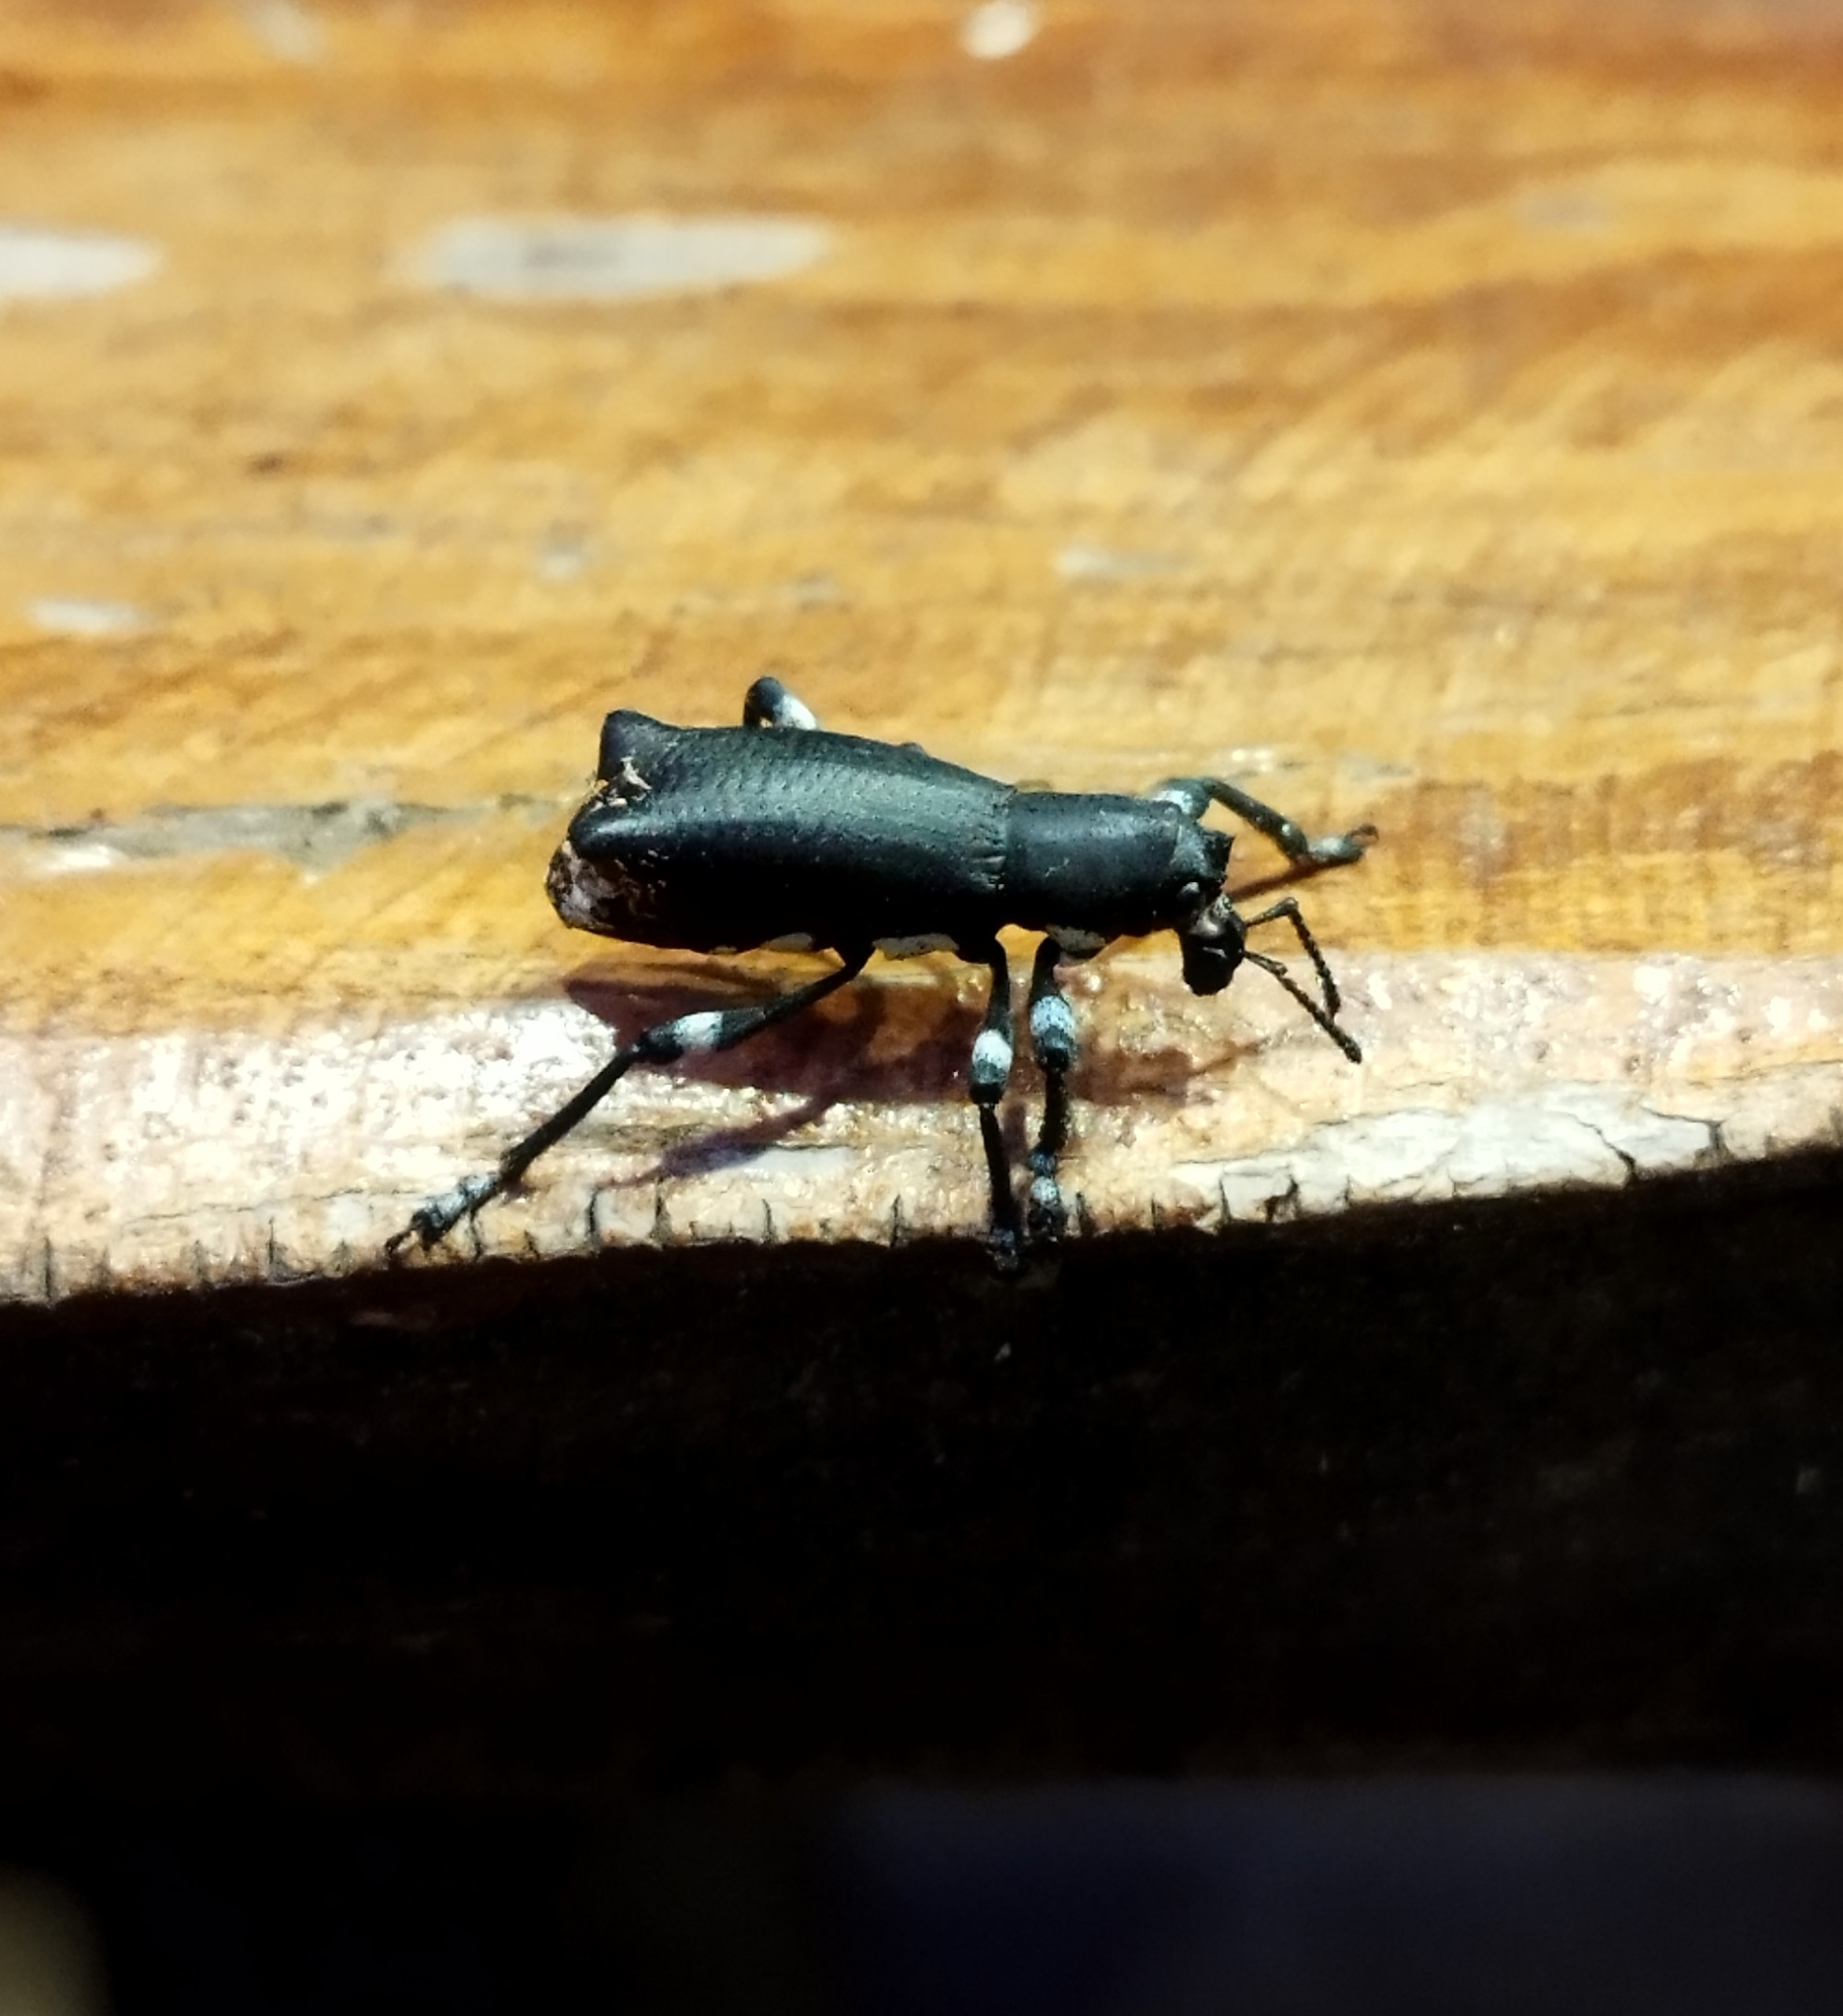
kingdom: Animalia
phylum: Arthropoda
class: Insecta
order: Coleoptera
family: Curculionidae
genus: Aegorhinus
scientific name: Aegorhinus
